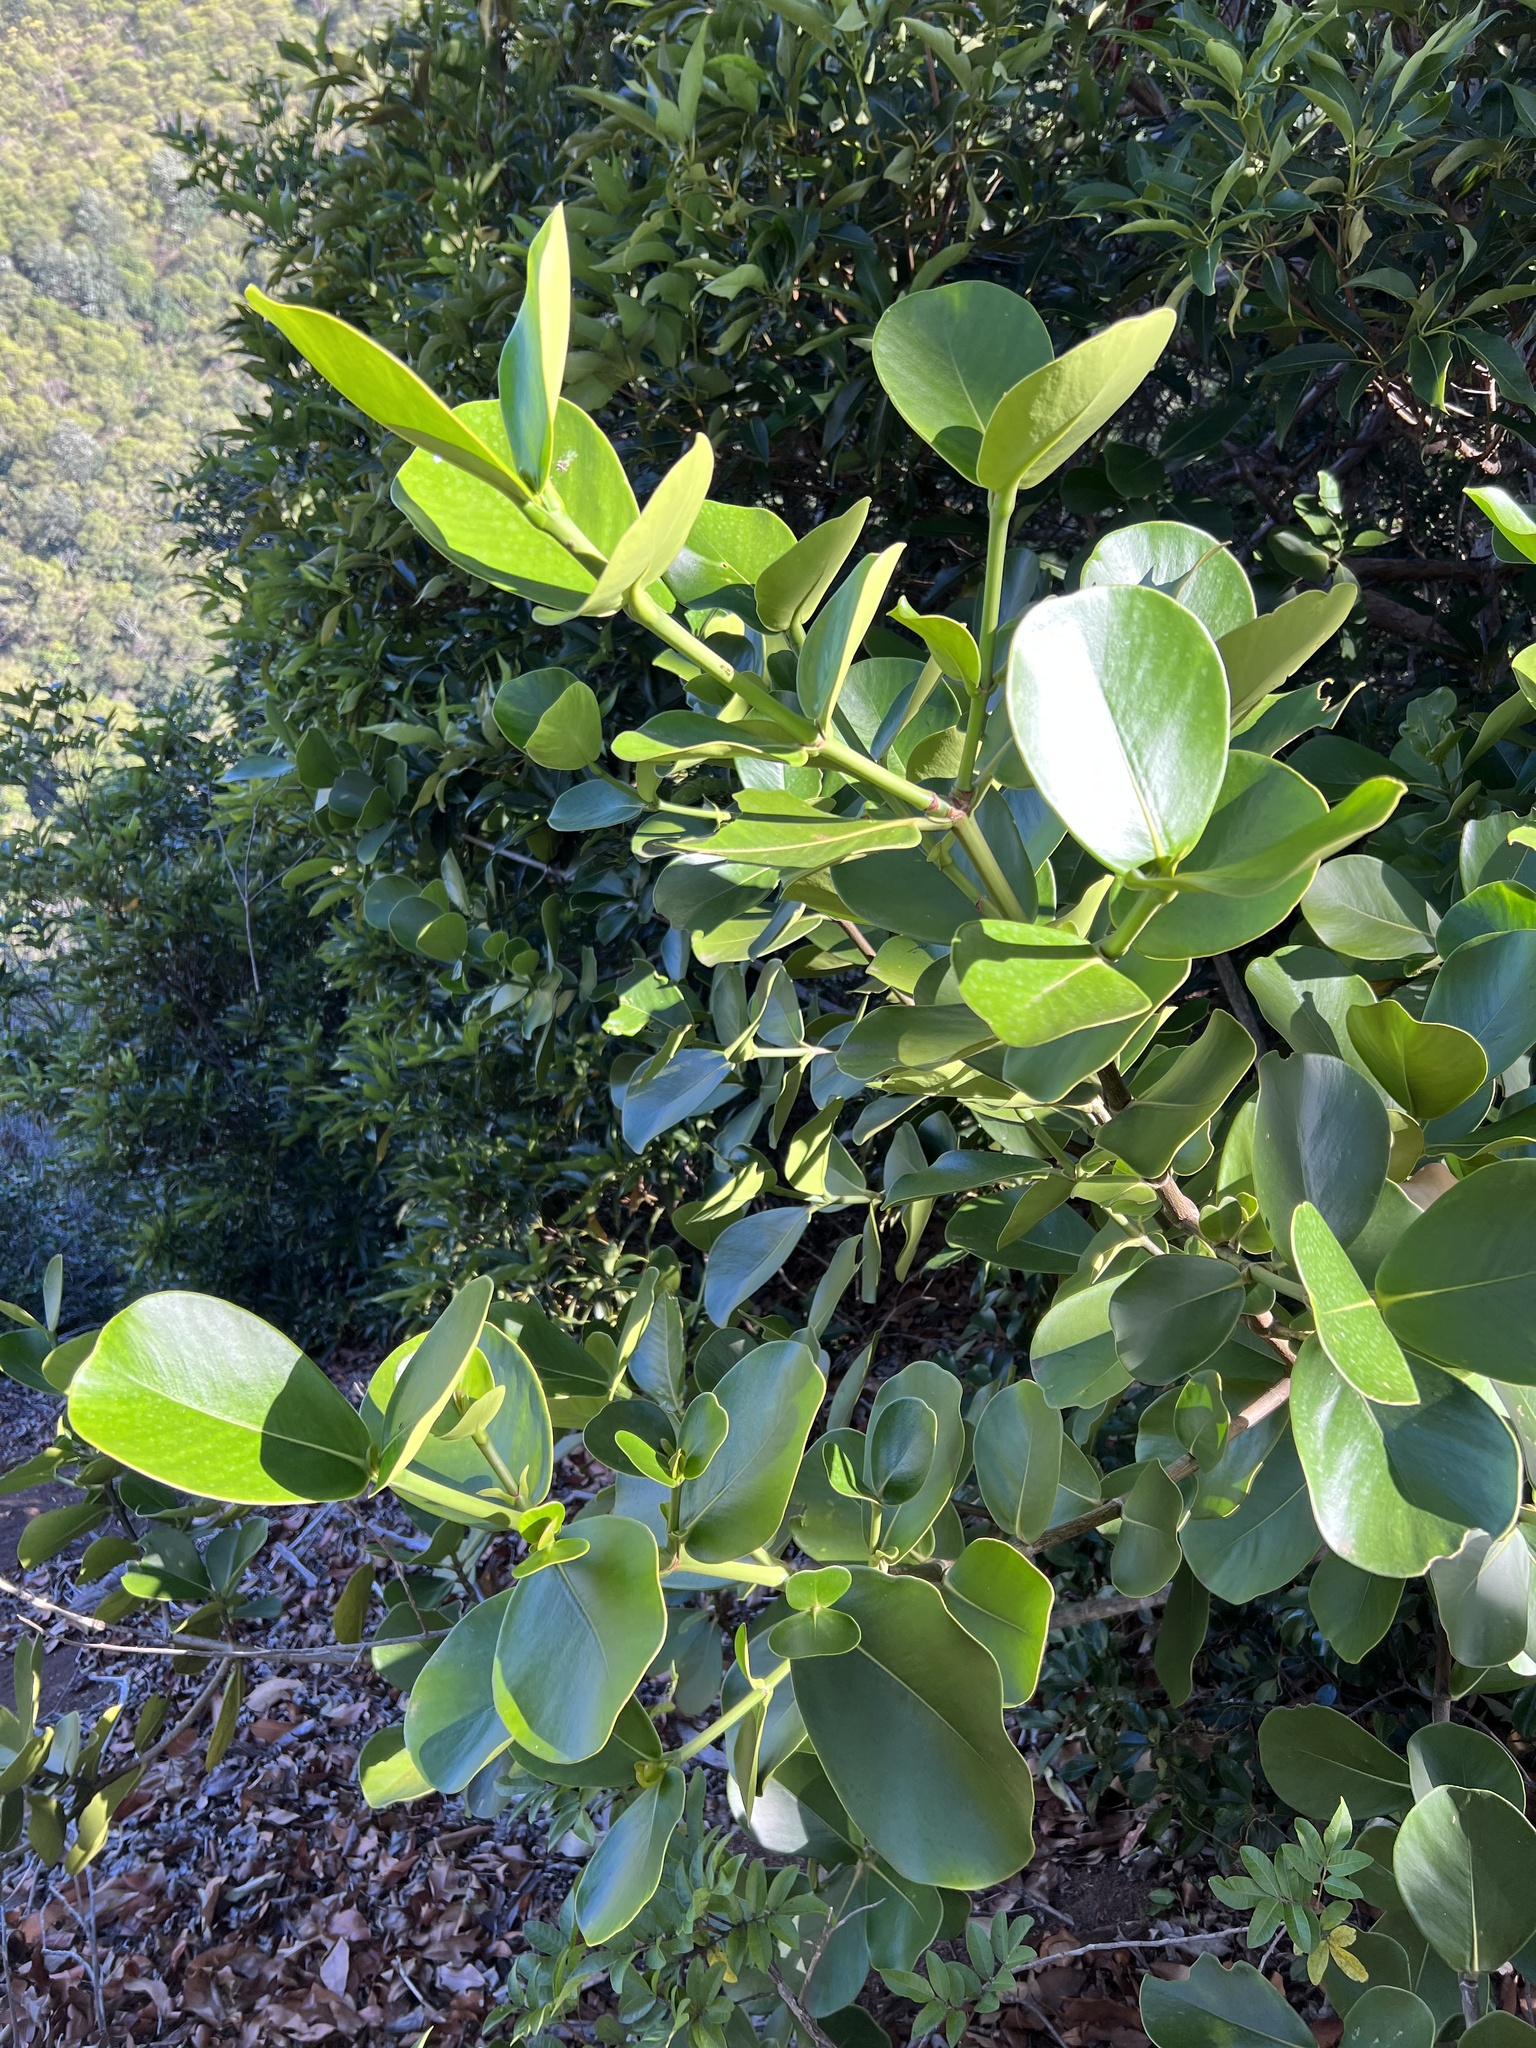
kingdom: Plantae
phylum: Tracheophyta
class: Magnoliopsida
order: Malpighiales
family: Clusiaceae
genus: Clusia
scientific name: Clusia rosea
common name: Scotch attorney
